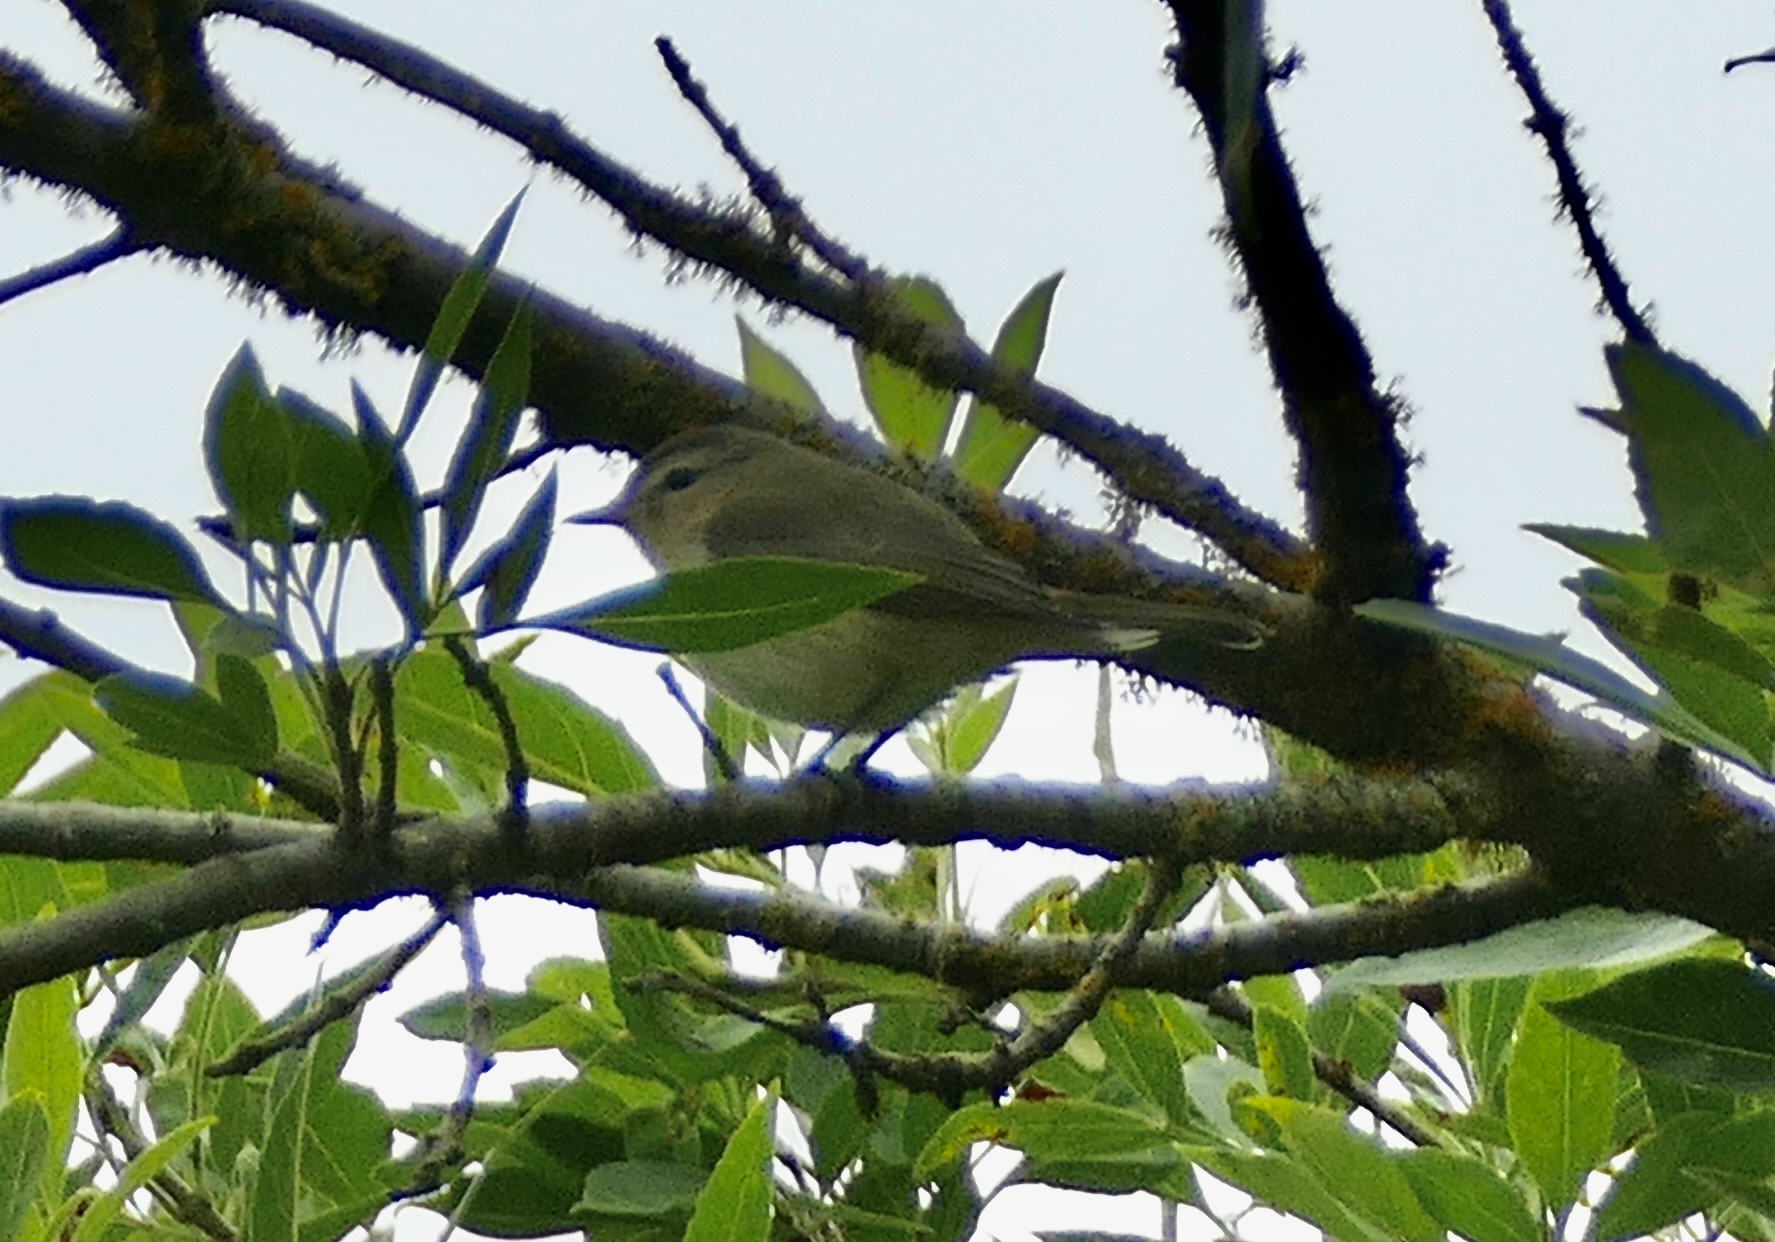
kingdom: Animalia
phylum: Chordata
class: Aves
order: Passeriformes
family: Vireonidae
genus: Vireo
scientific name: Vireo gilvus
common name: Warbling vireo
